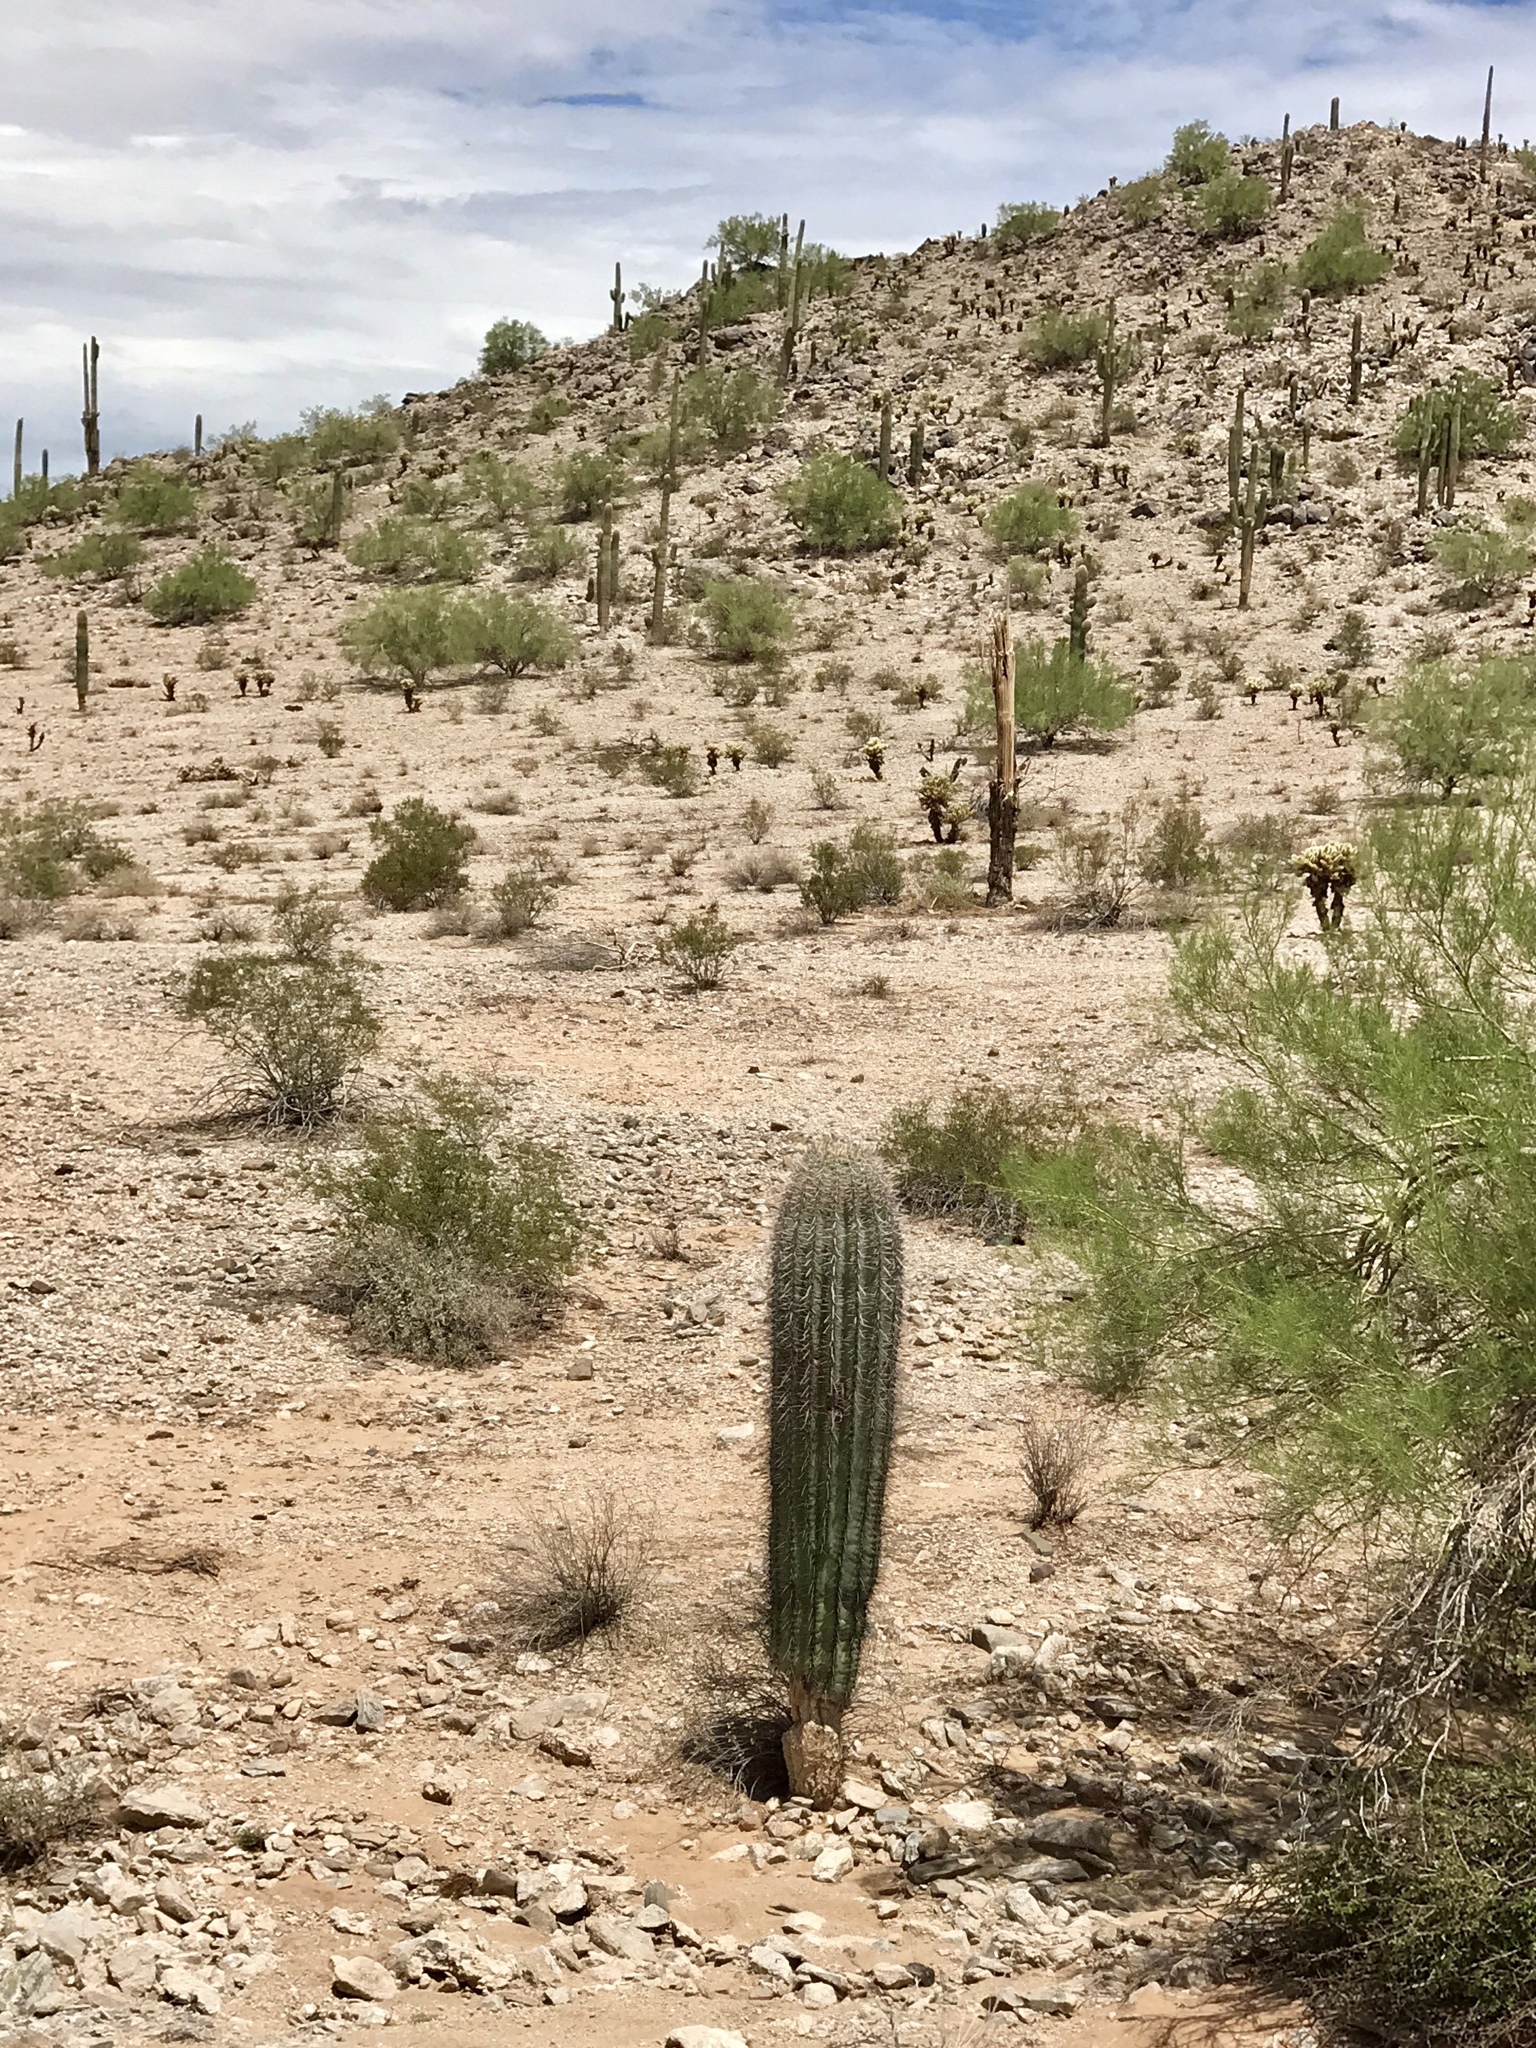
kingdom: Plantae
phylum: Tracheophyta
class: Magnoliopsida
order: Caryophyllales
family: Cactaceae
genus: Carnegiea
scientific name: Carnegiea gigantea
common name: Saguaro
